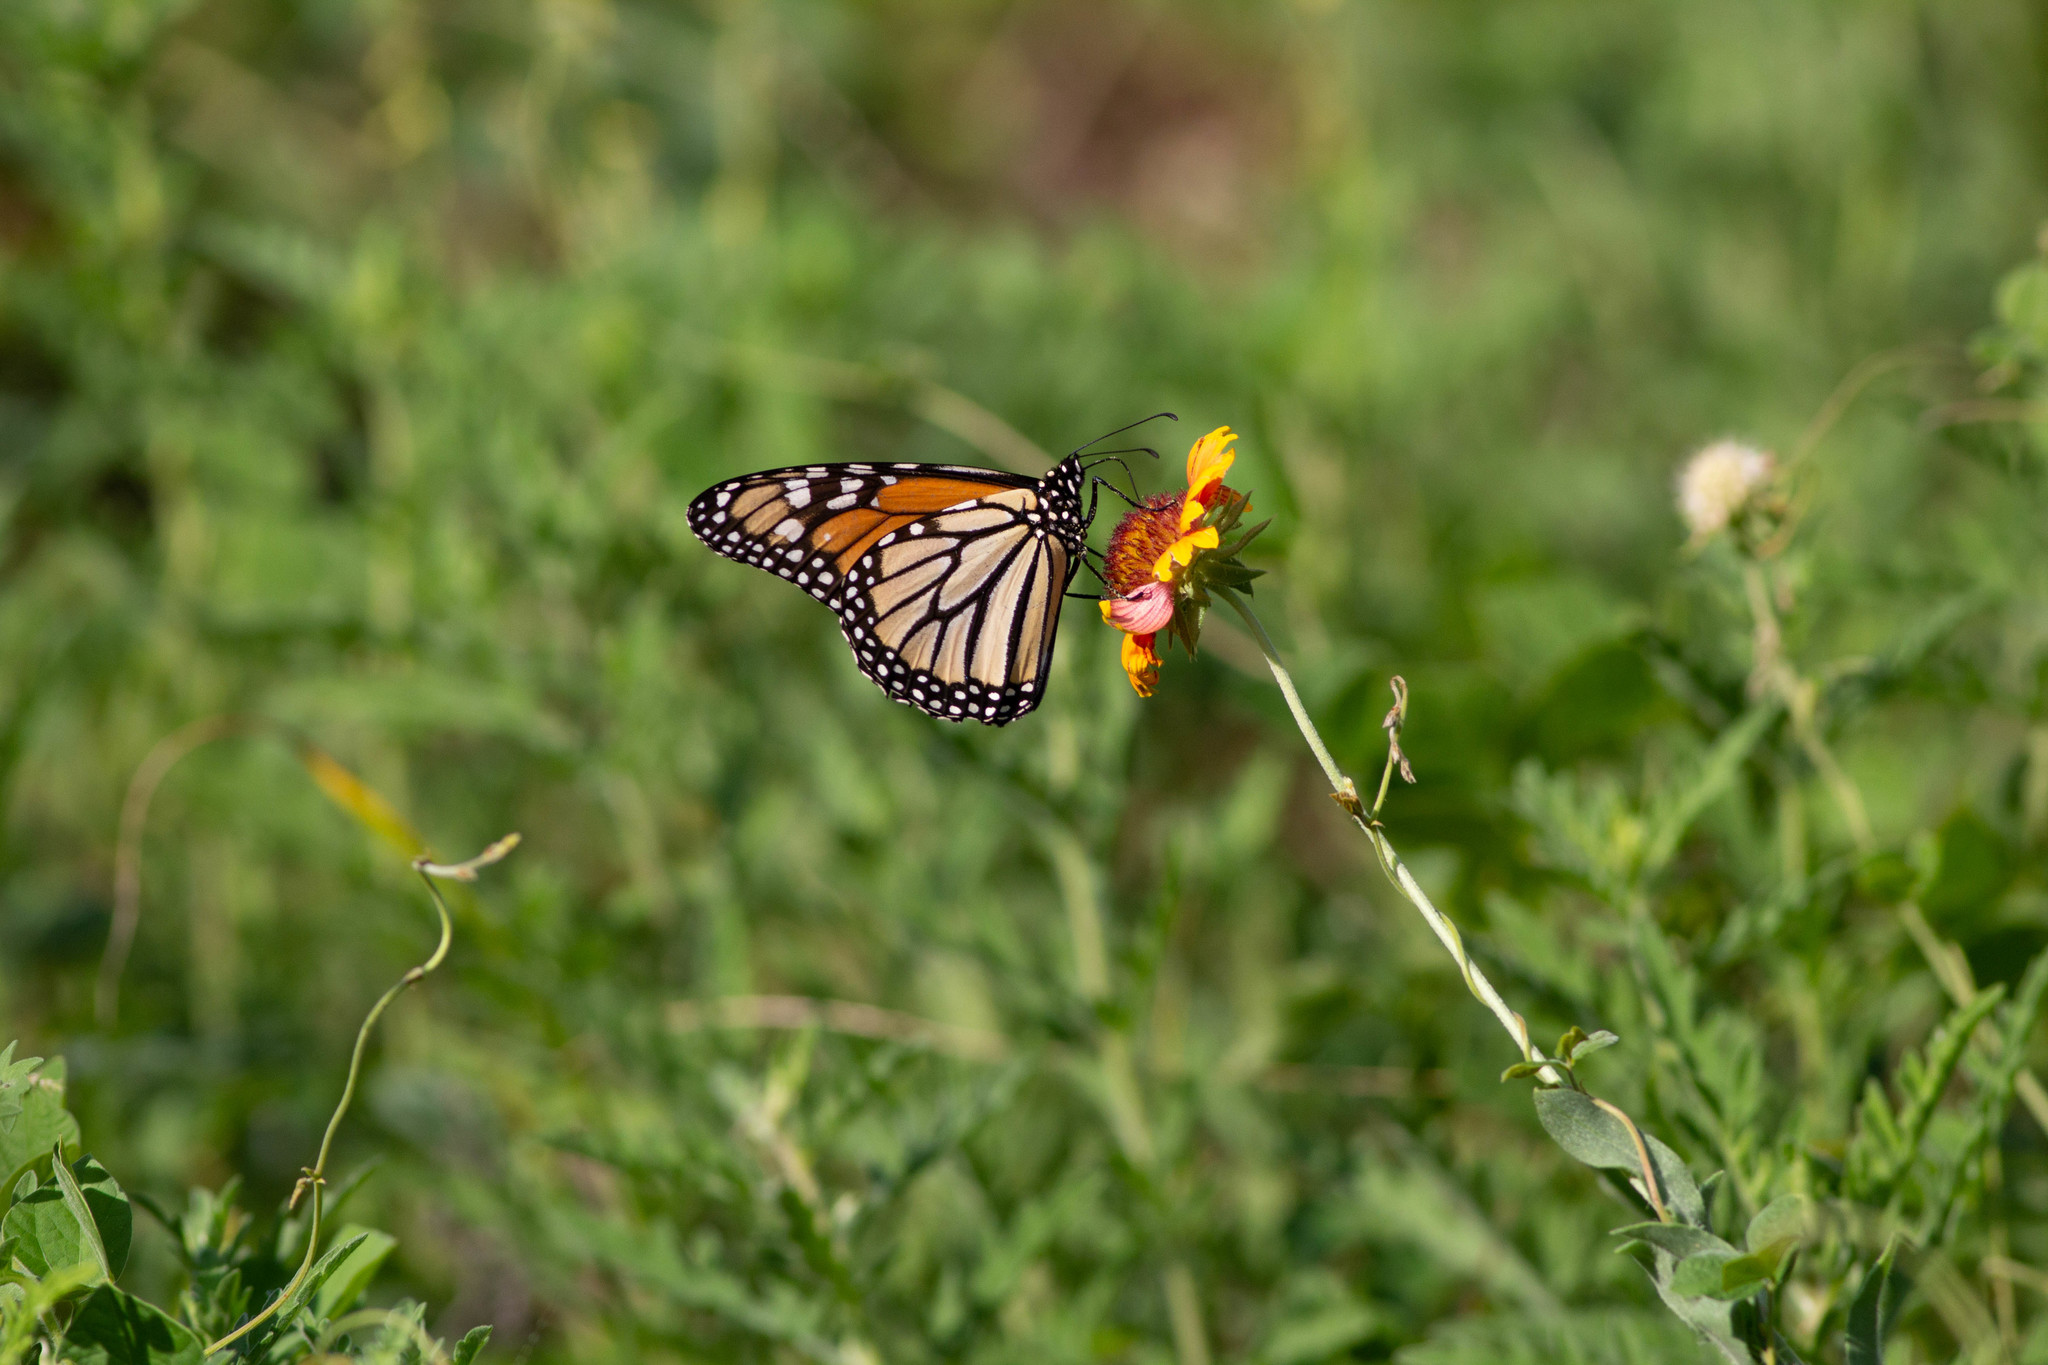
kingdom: Animalia
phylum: Arthropoda
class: Insecta
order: Lepidoptera
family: Nymphalidae
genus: Danaus
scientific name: Danaus plexippus
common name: Monarch
